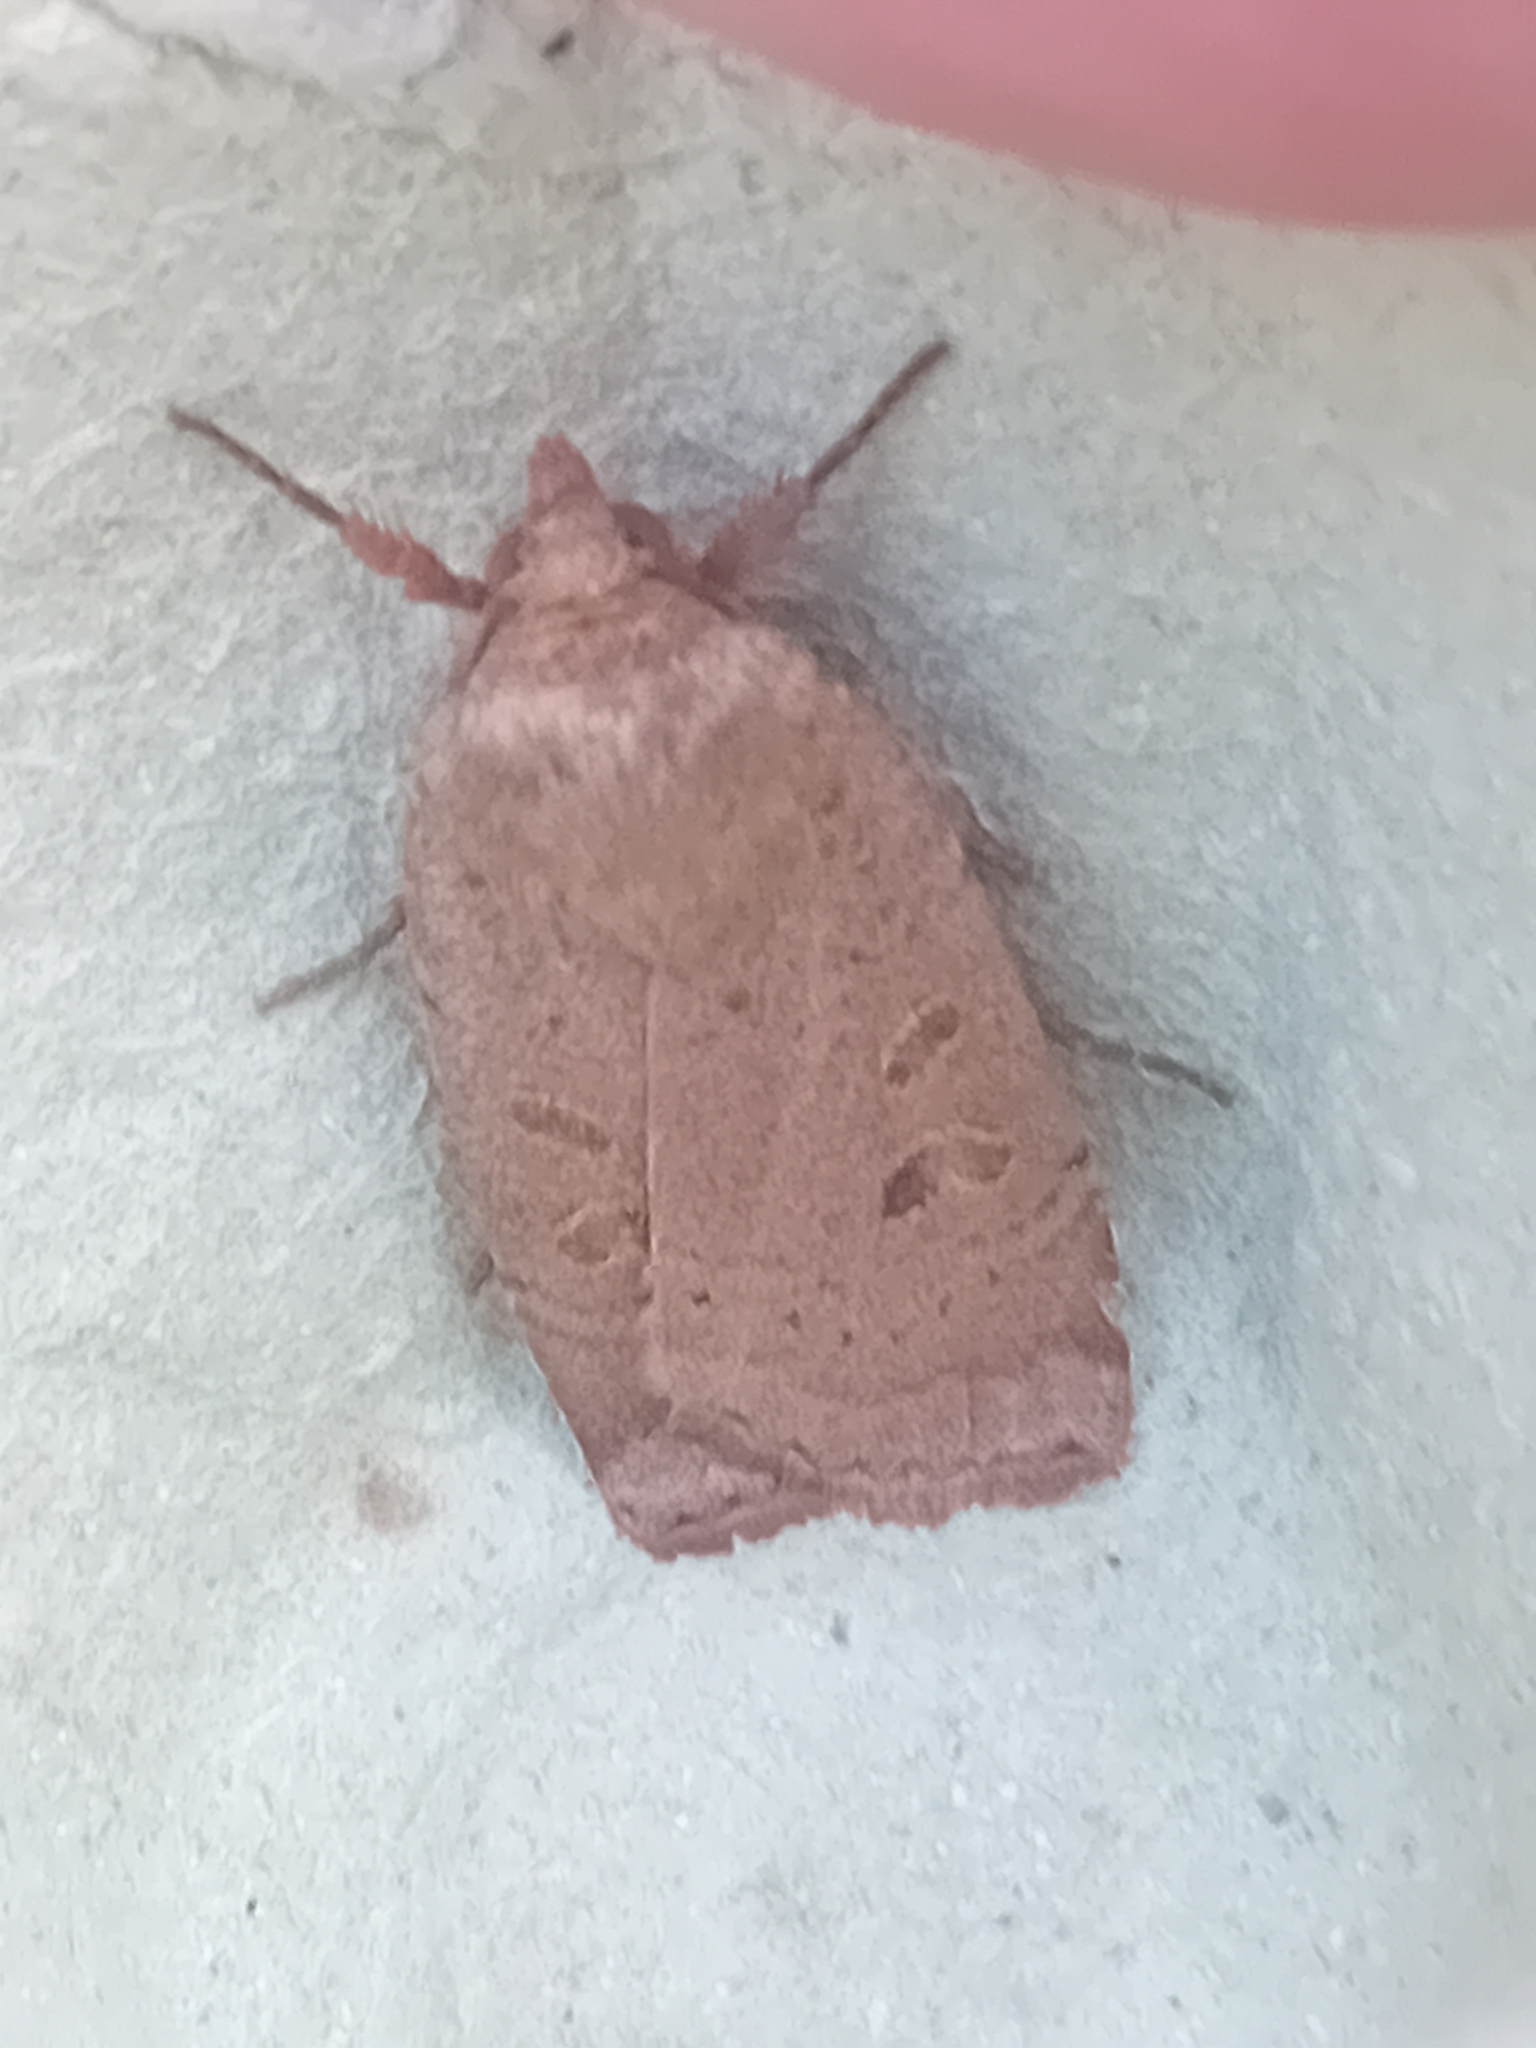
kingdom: Animalia
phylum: Arthropoda
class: Insecta
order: Lepidoptera
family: Noctuidae
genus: Noctua
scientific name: Noctua comes
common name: Lesser yellow underwing
